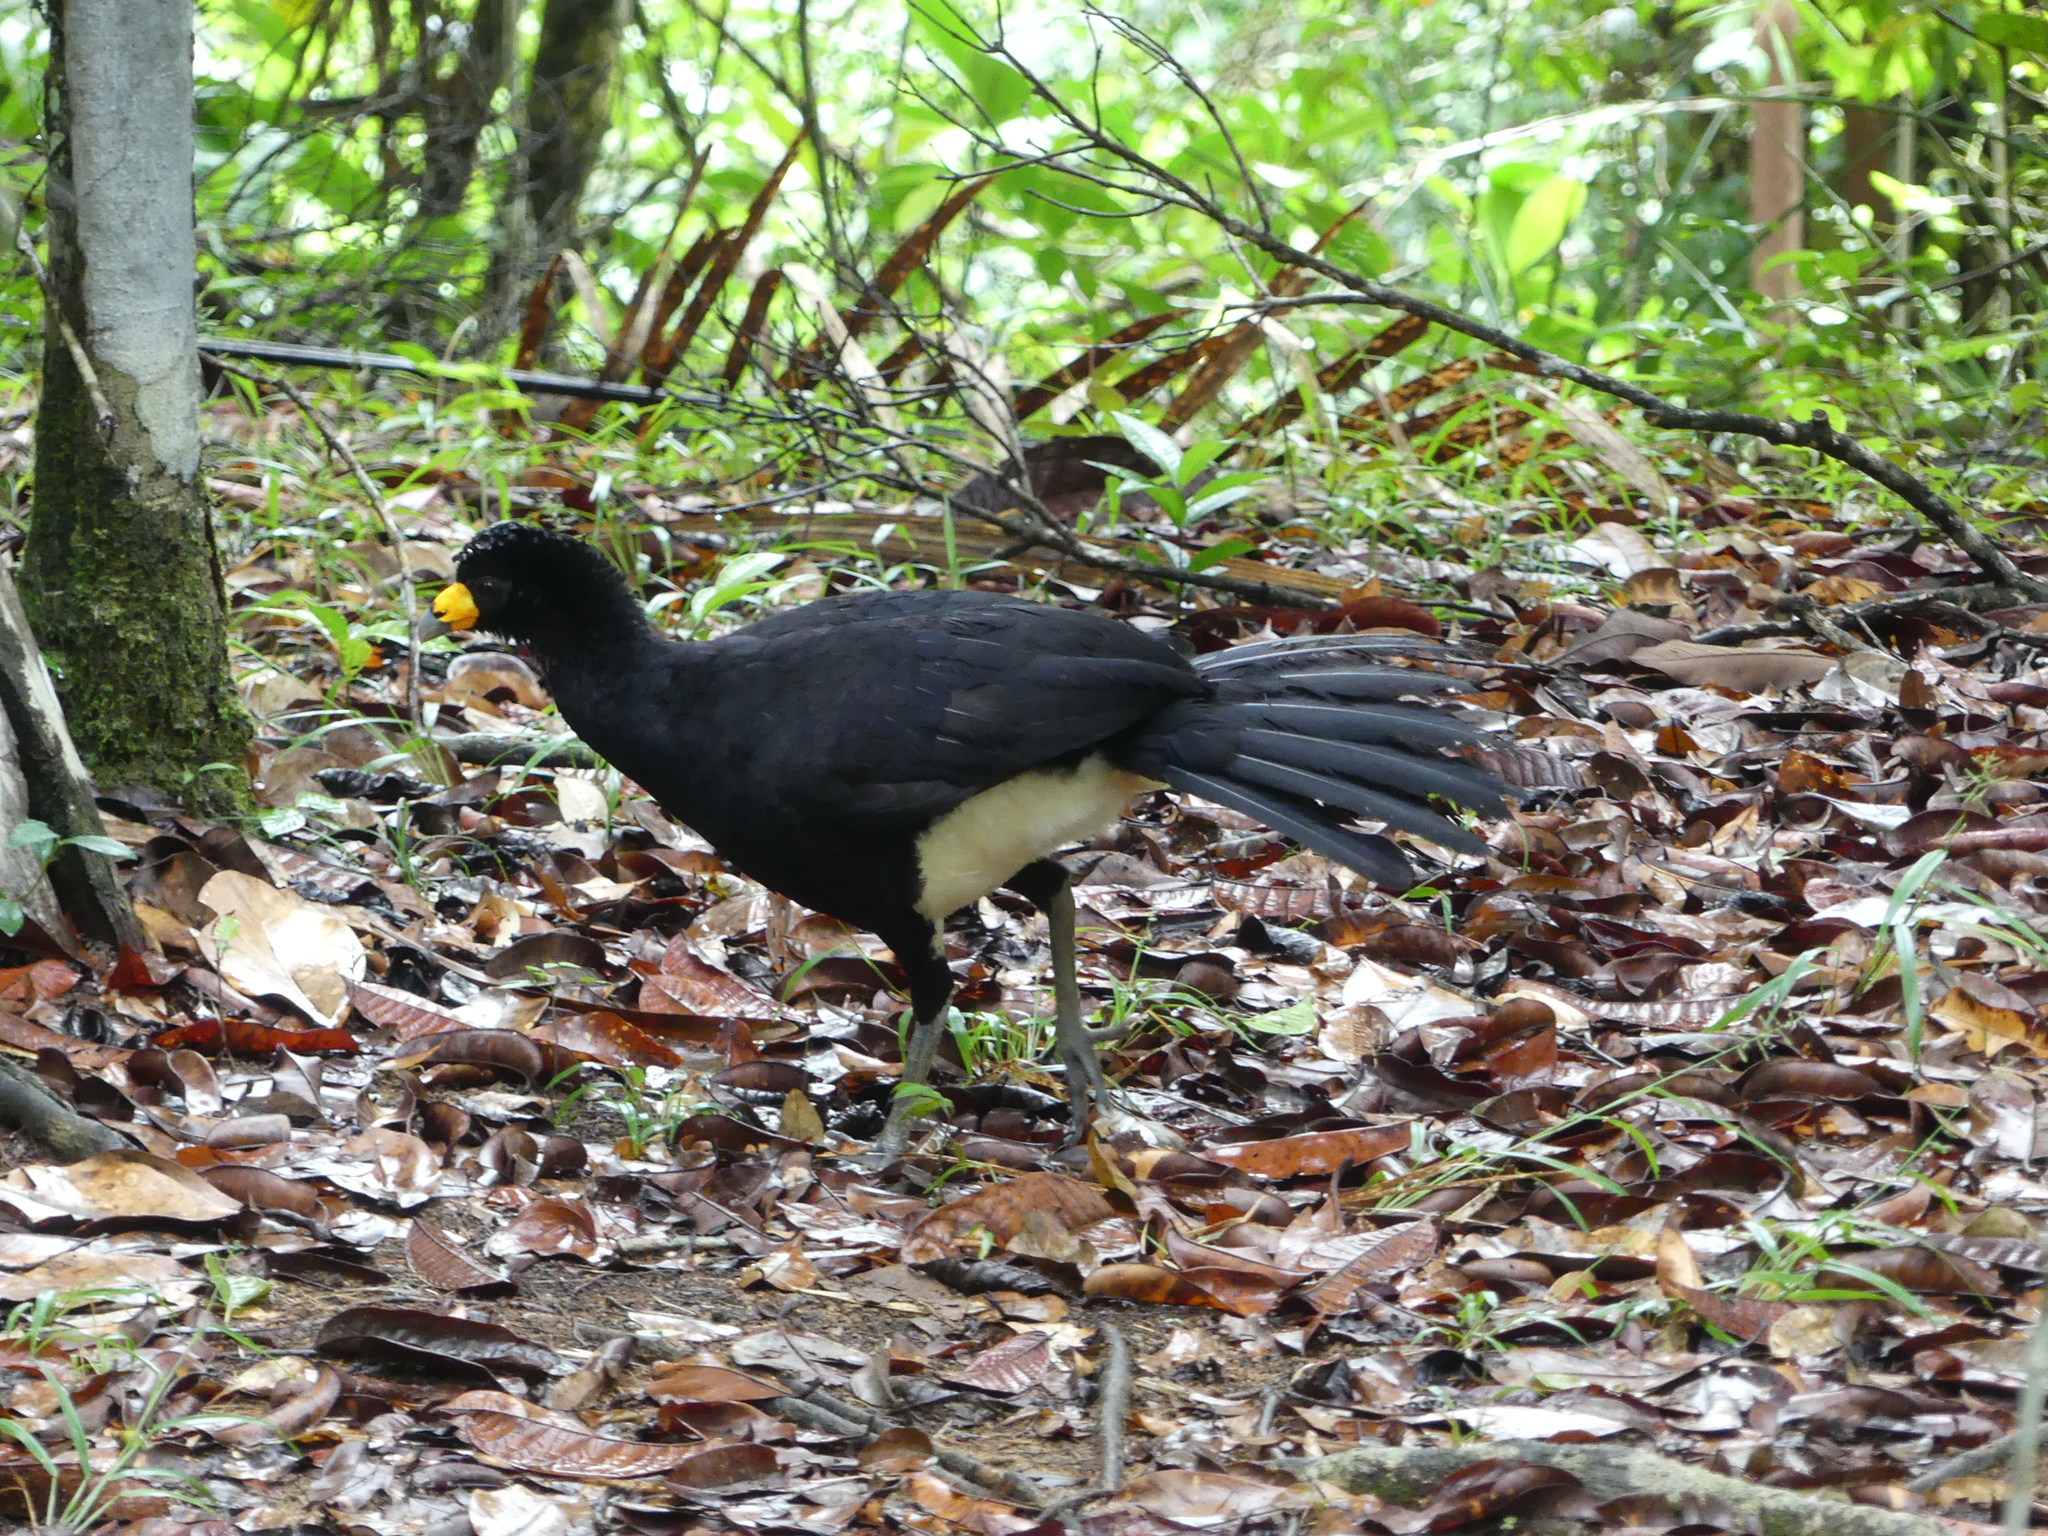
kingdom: Animalia
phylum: Chordata
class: Aves
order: Galliformes
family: Cracidae
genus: Crax
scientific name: Crax alector
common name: Black curassow
